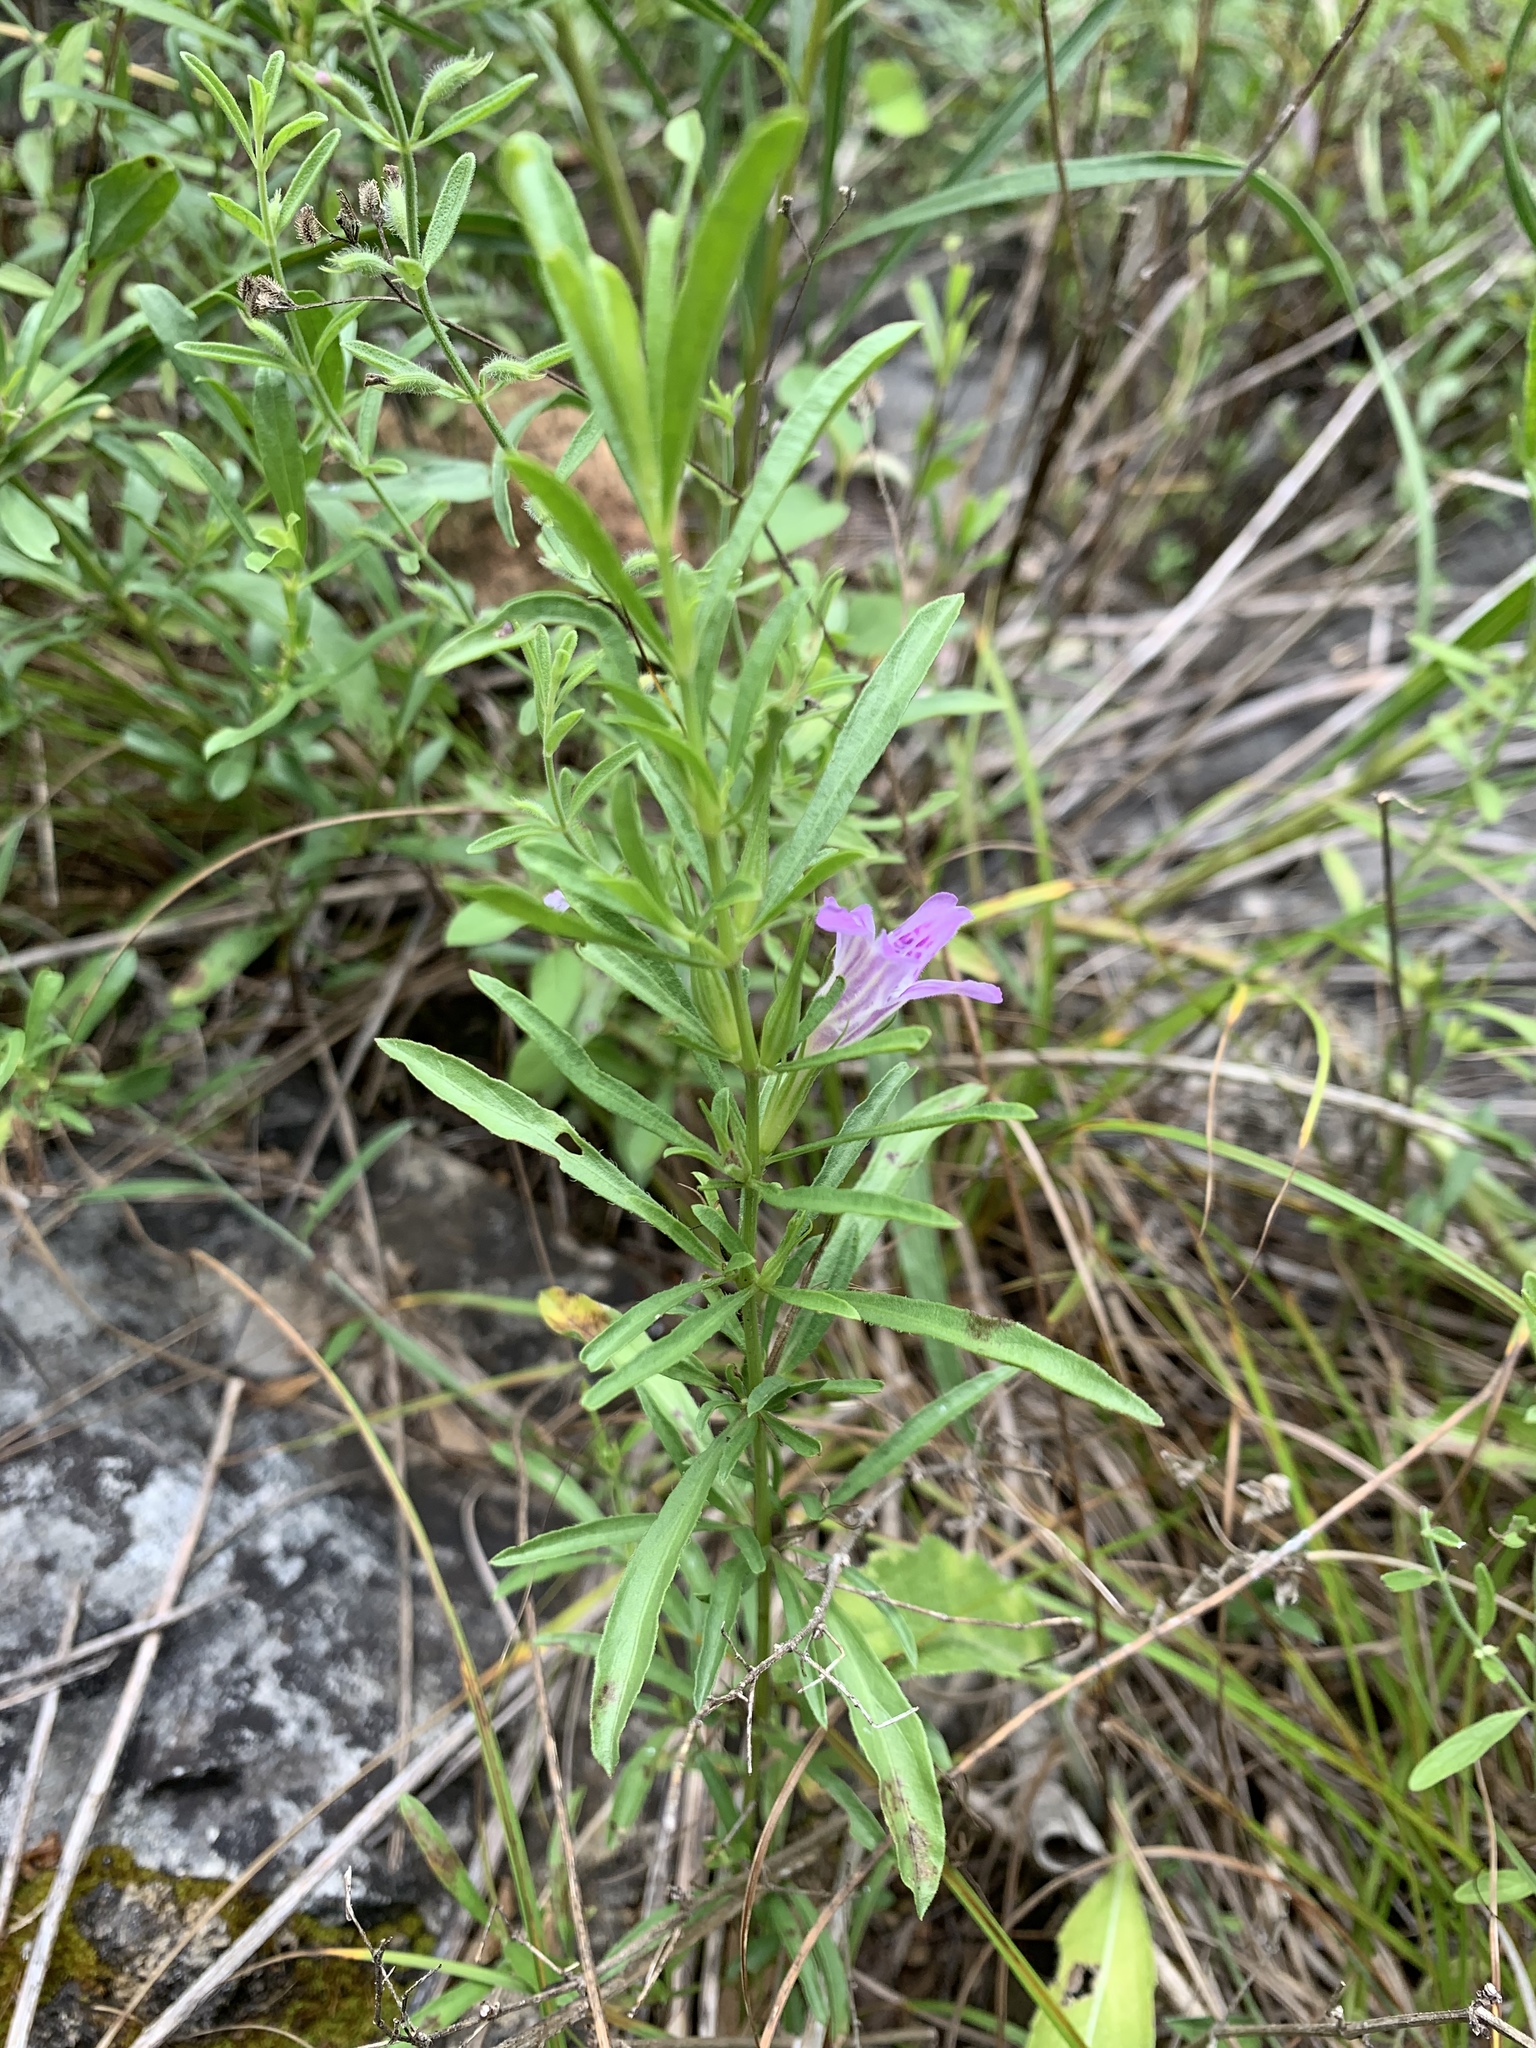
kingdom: Plantae
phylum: Tracheophyta
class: Magnoliopsida
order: Lamiales
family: Acanthaceae
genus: Dyschoriste
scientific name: Dyschoriste linearis
